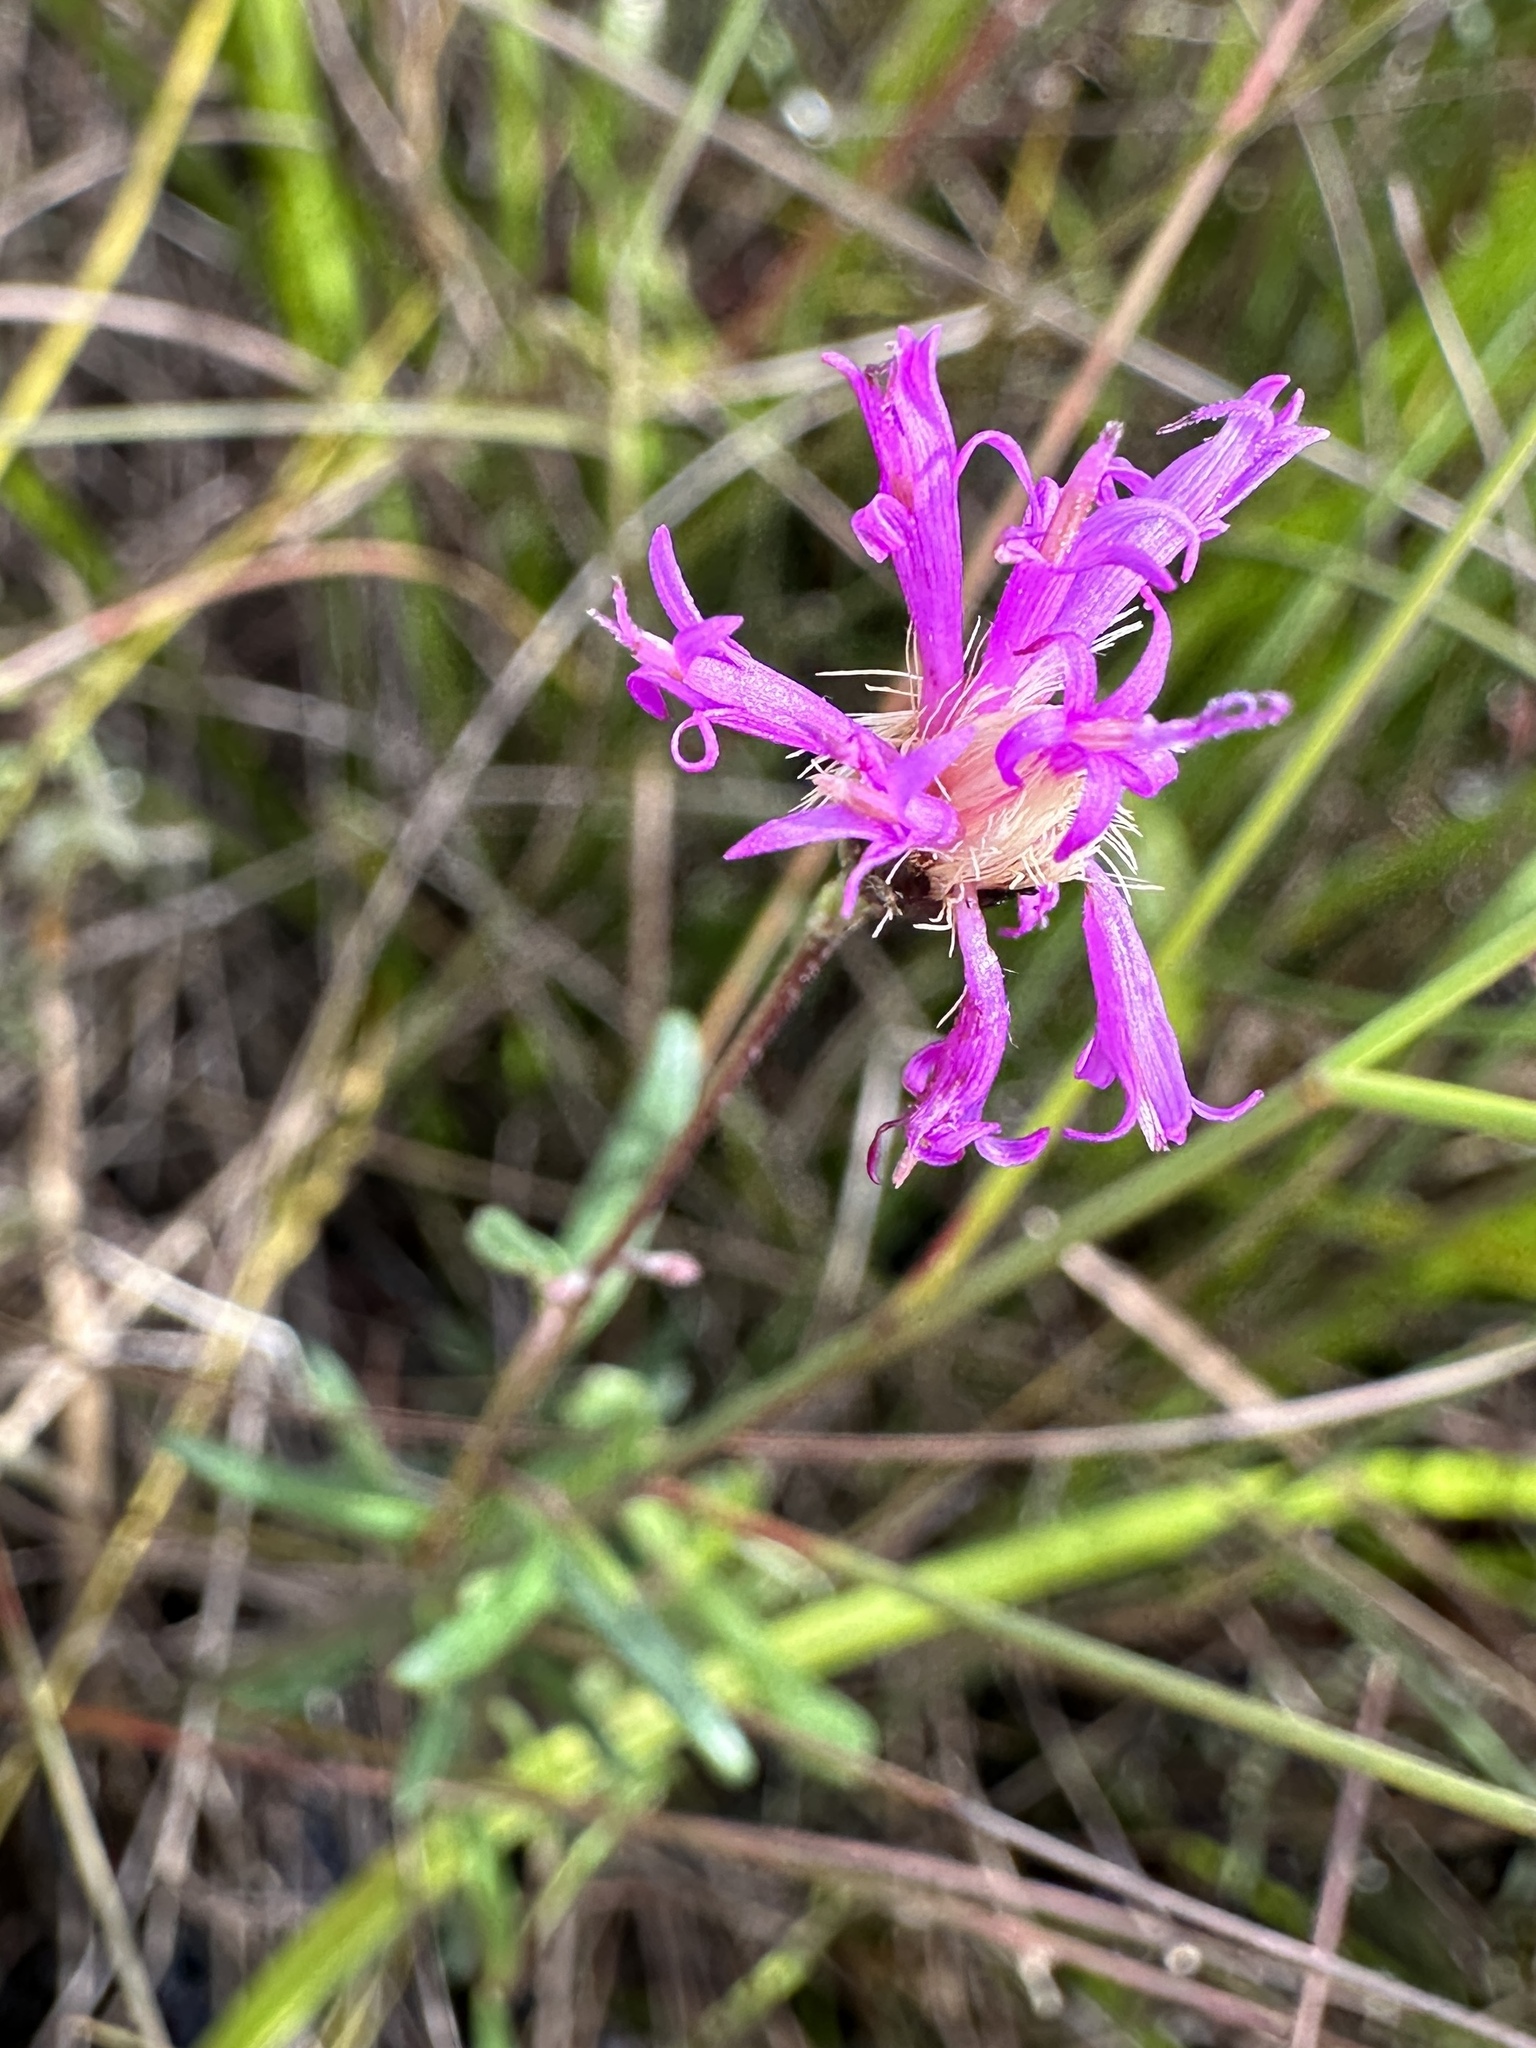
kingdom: Plantae
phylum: Tracheophyta
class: Magnoliopsida
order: Asterales
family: Asteraceae
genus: Vernonia
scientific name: Vernonia blodgettii
